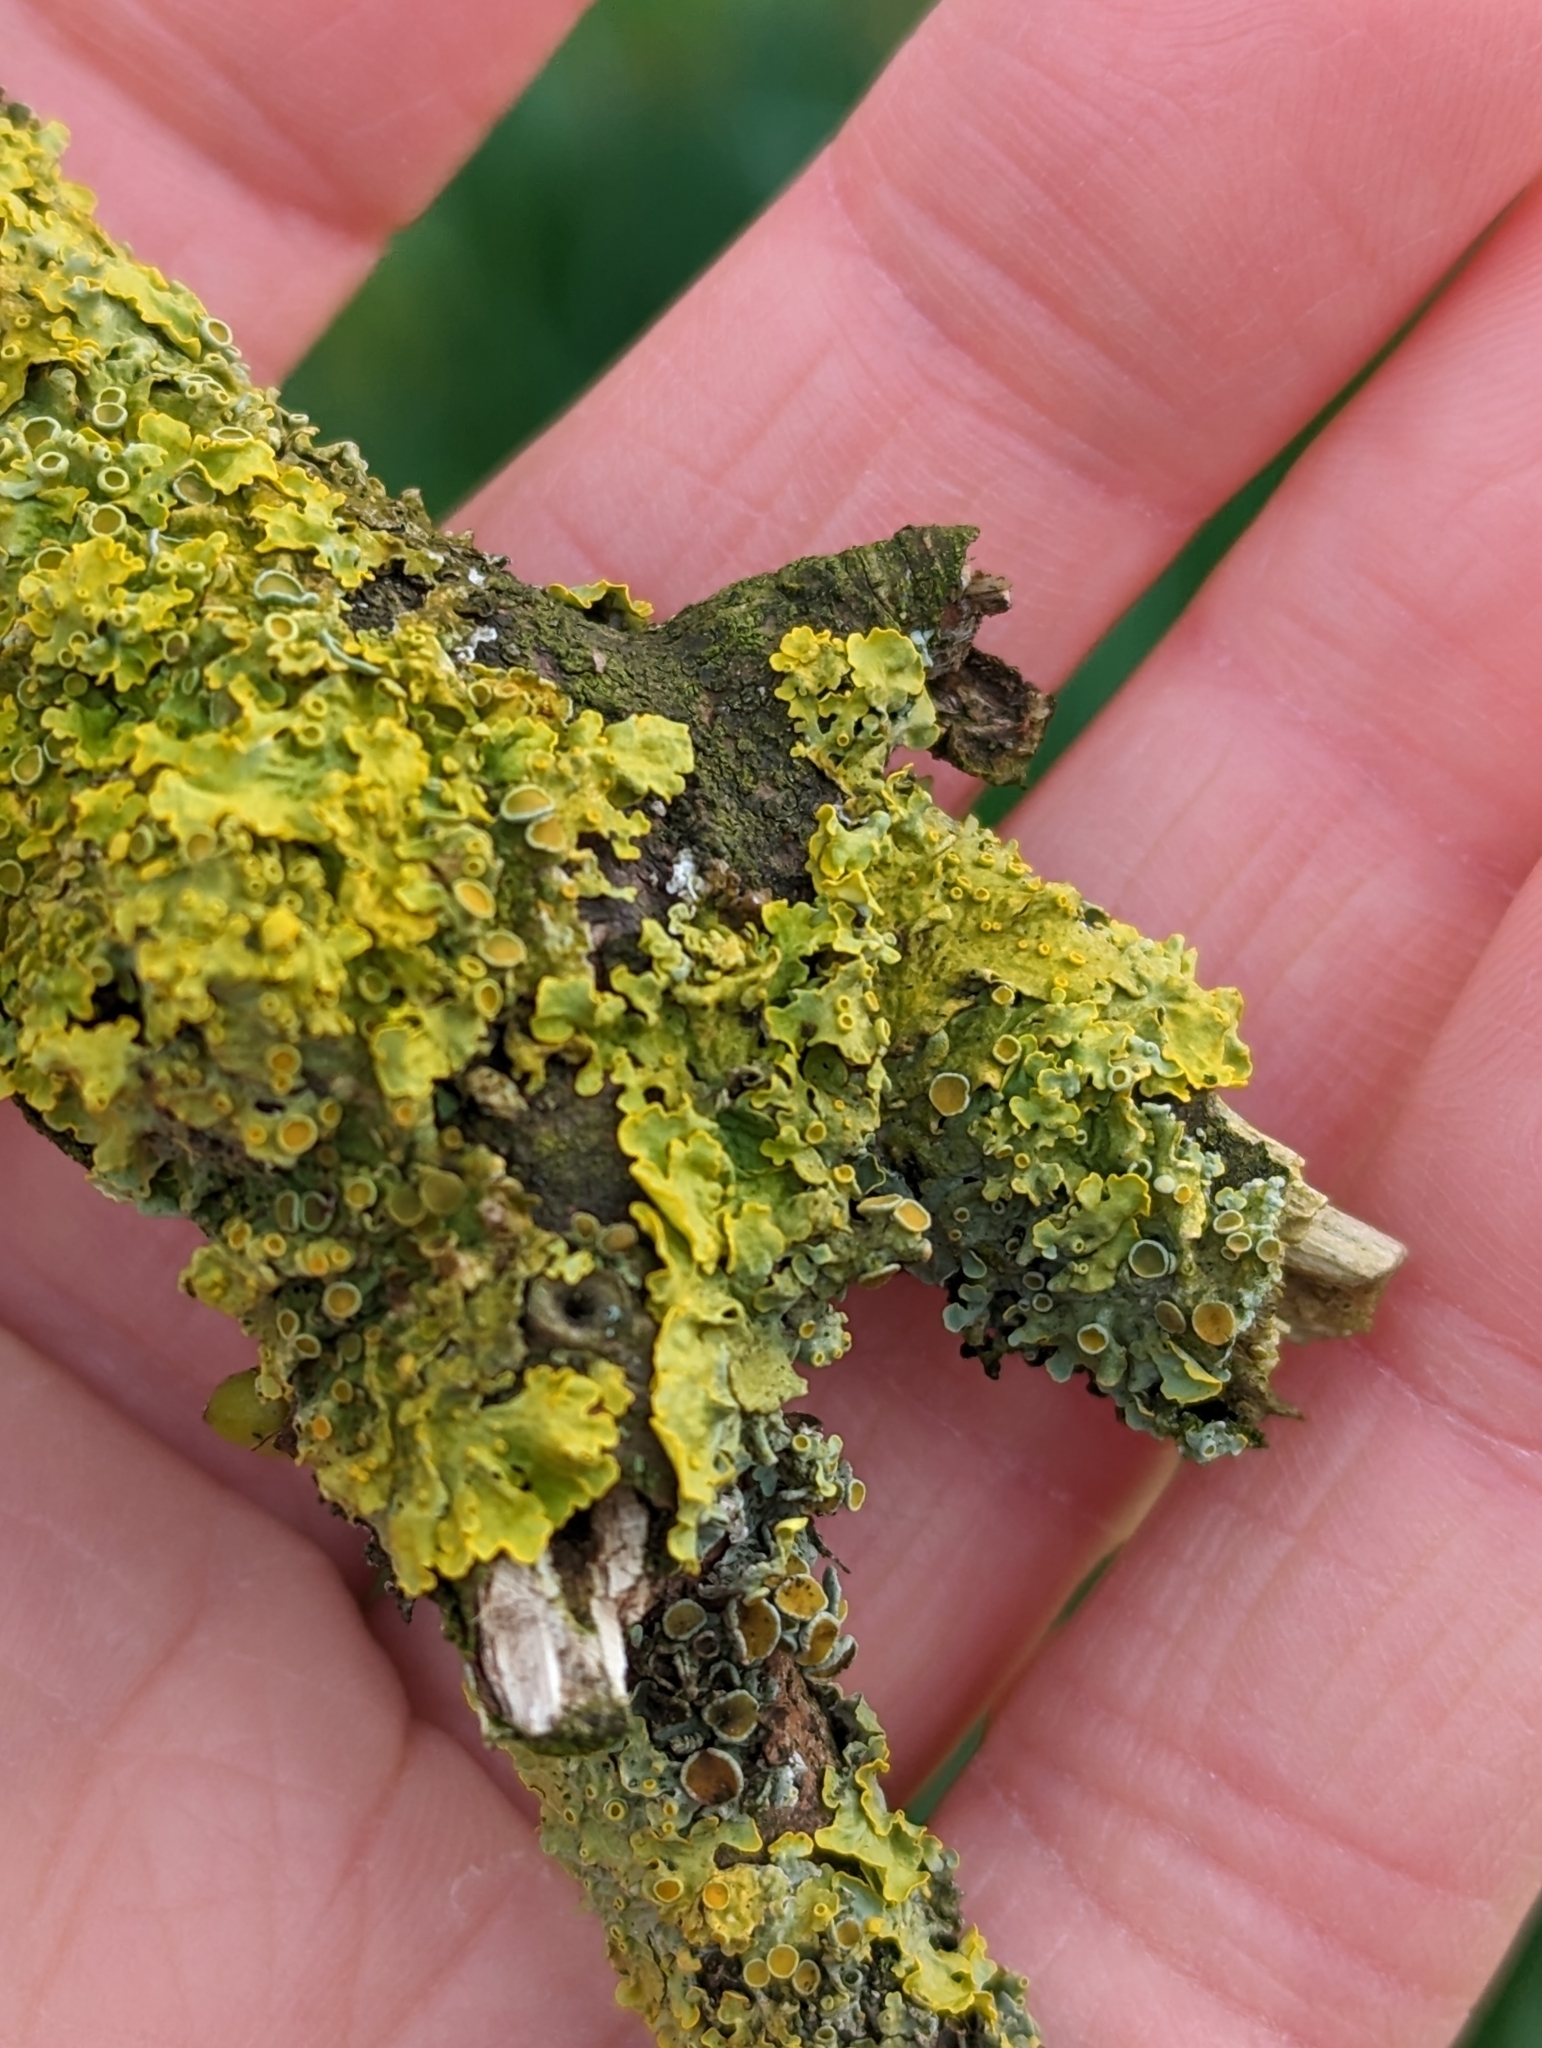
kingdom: Fungi
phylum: Ascomycota
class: Lecanoromycetes
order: Teloschistales
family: Teloschistaceae
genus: Xanthoria
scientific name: Xanthoria parietina
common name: Common orange lichen
